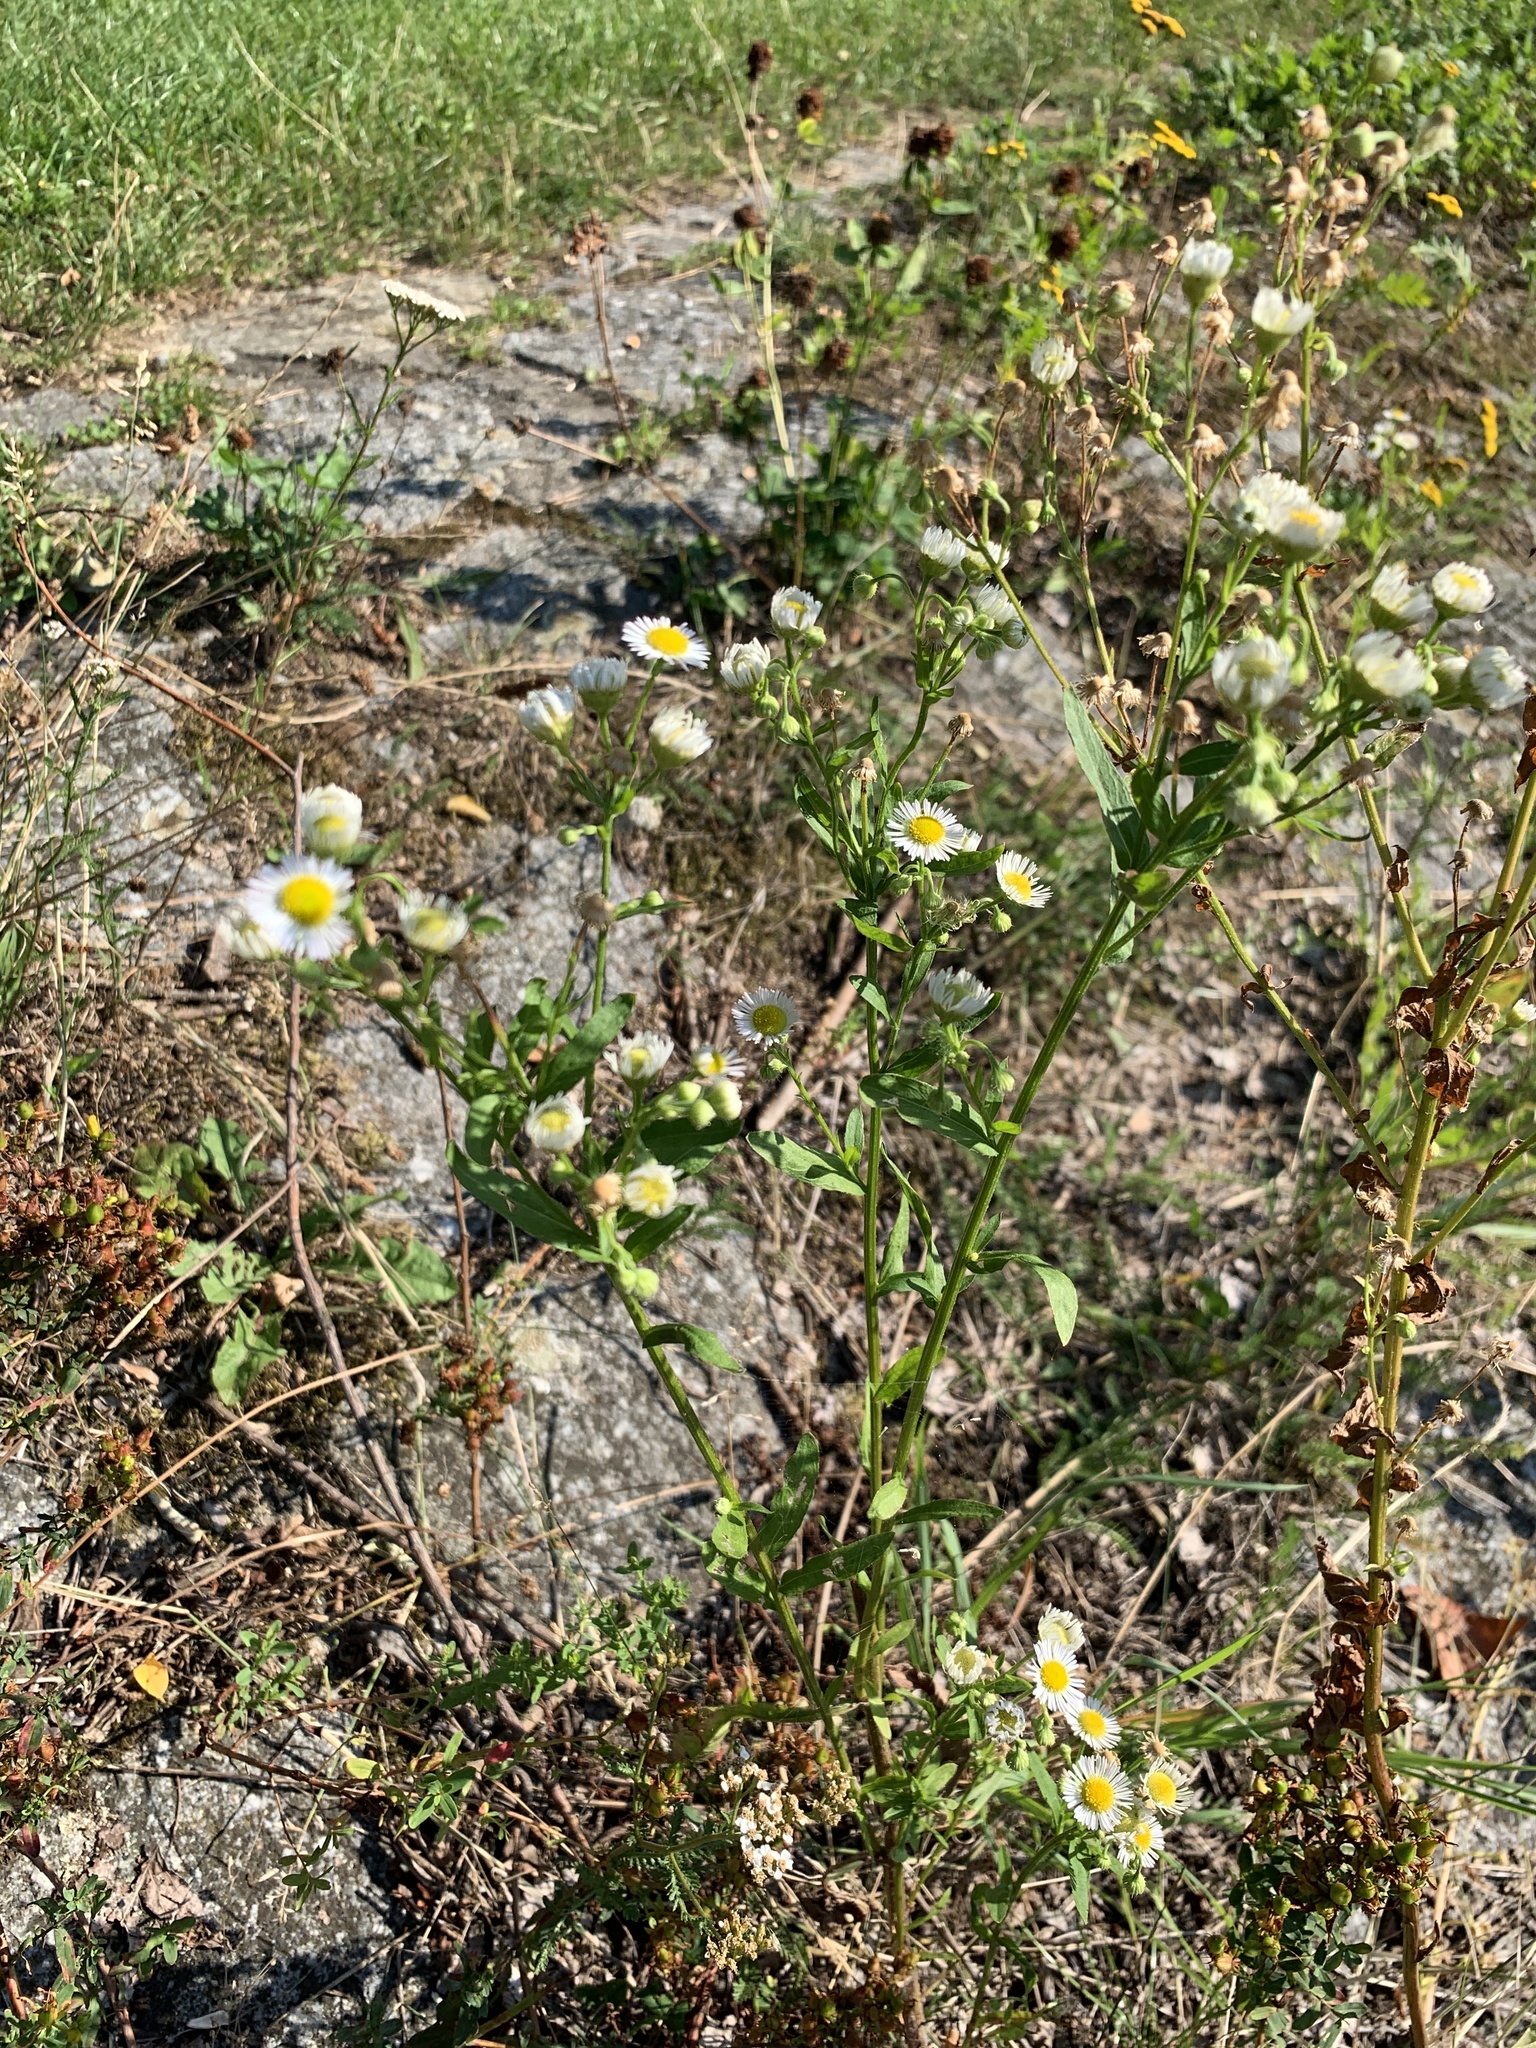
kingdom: Plantae
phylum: Tracheophyta
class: Magnoliopsida
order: Asterales
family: Asteraceae
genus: Erigeron
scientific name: Erigeron annuus
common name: Tall fleabane
